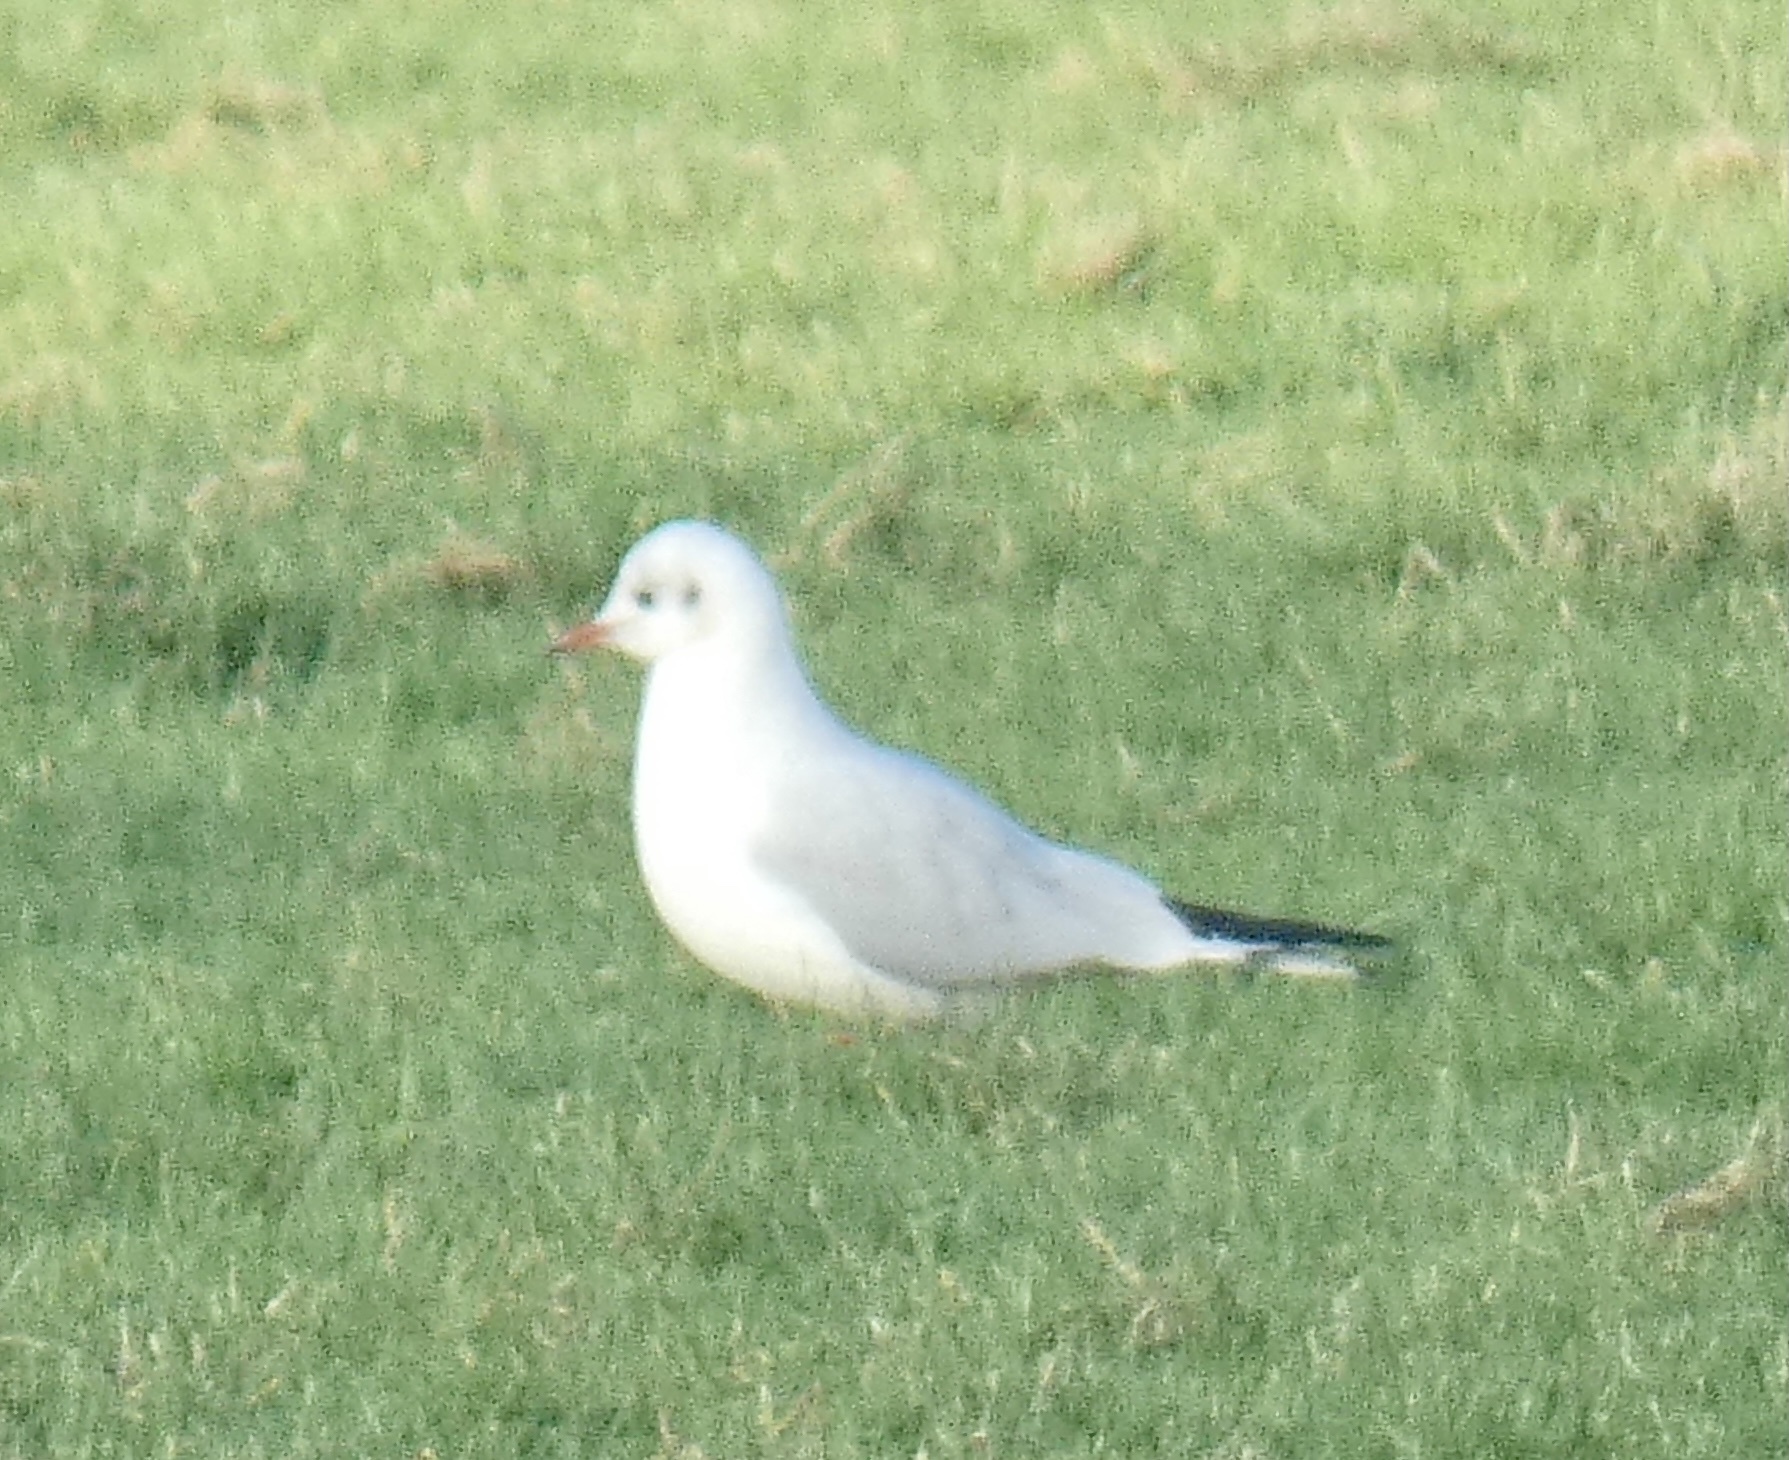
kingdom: Animalia
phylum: Chordata
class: Aves
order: Charadriiformes
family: Laridae
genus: Chroicocephalus
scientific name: Chroicocephalus ridibundus
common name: Black-headed gull
